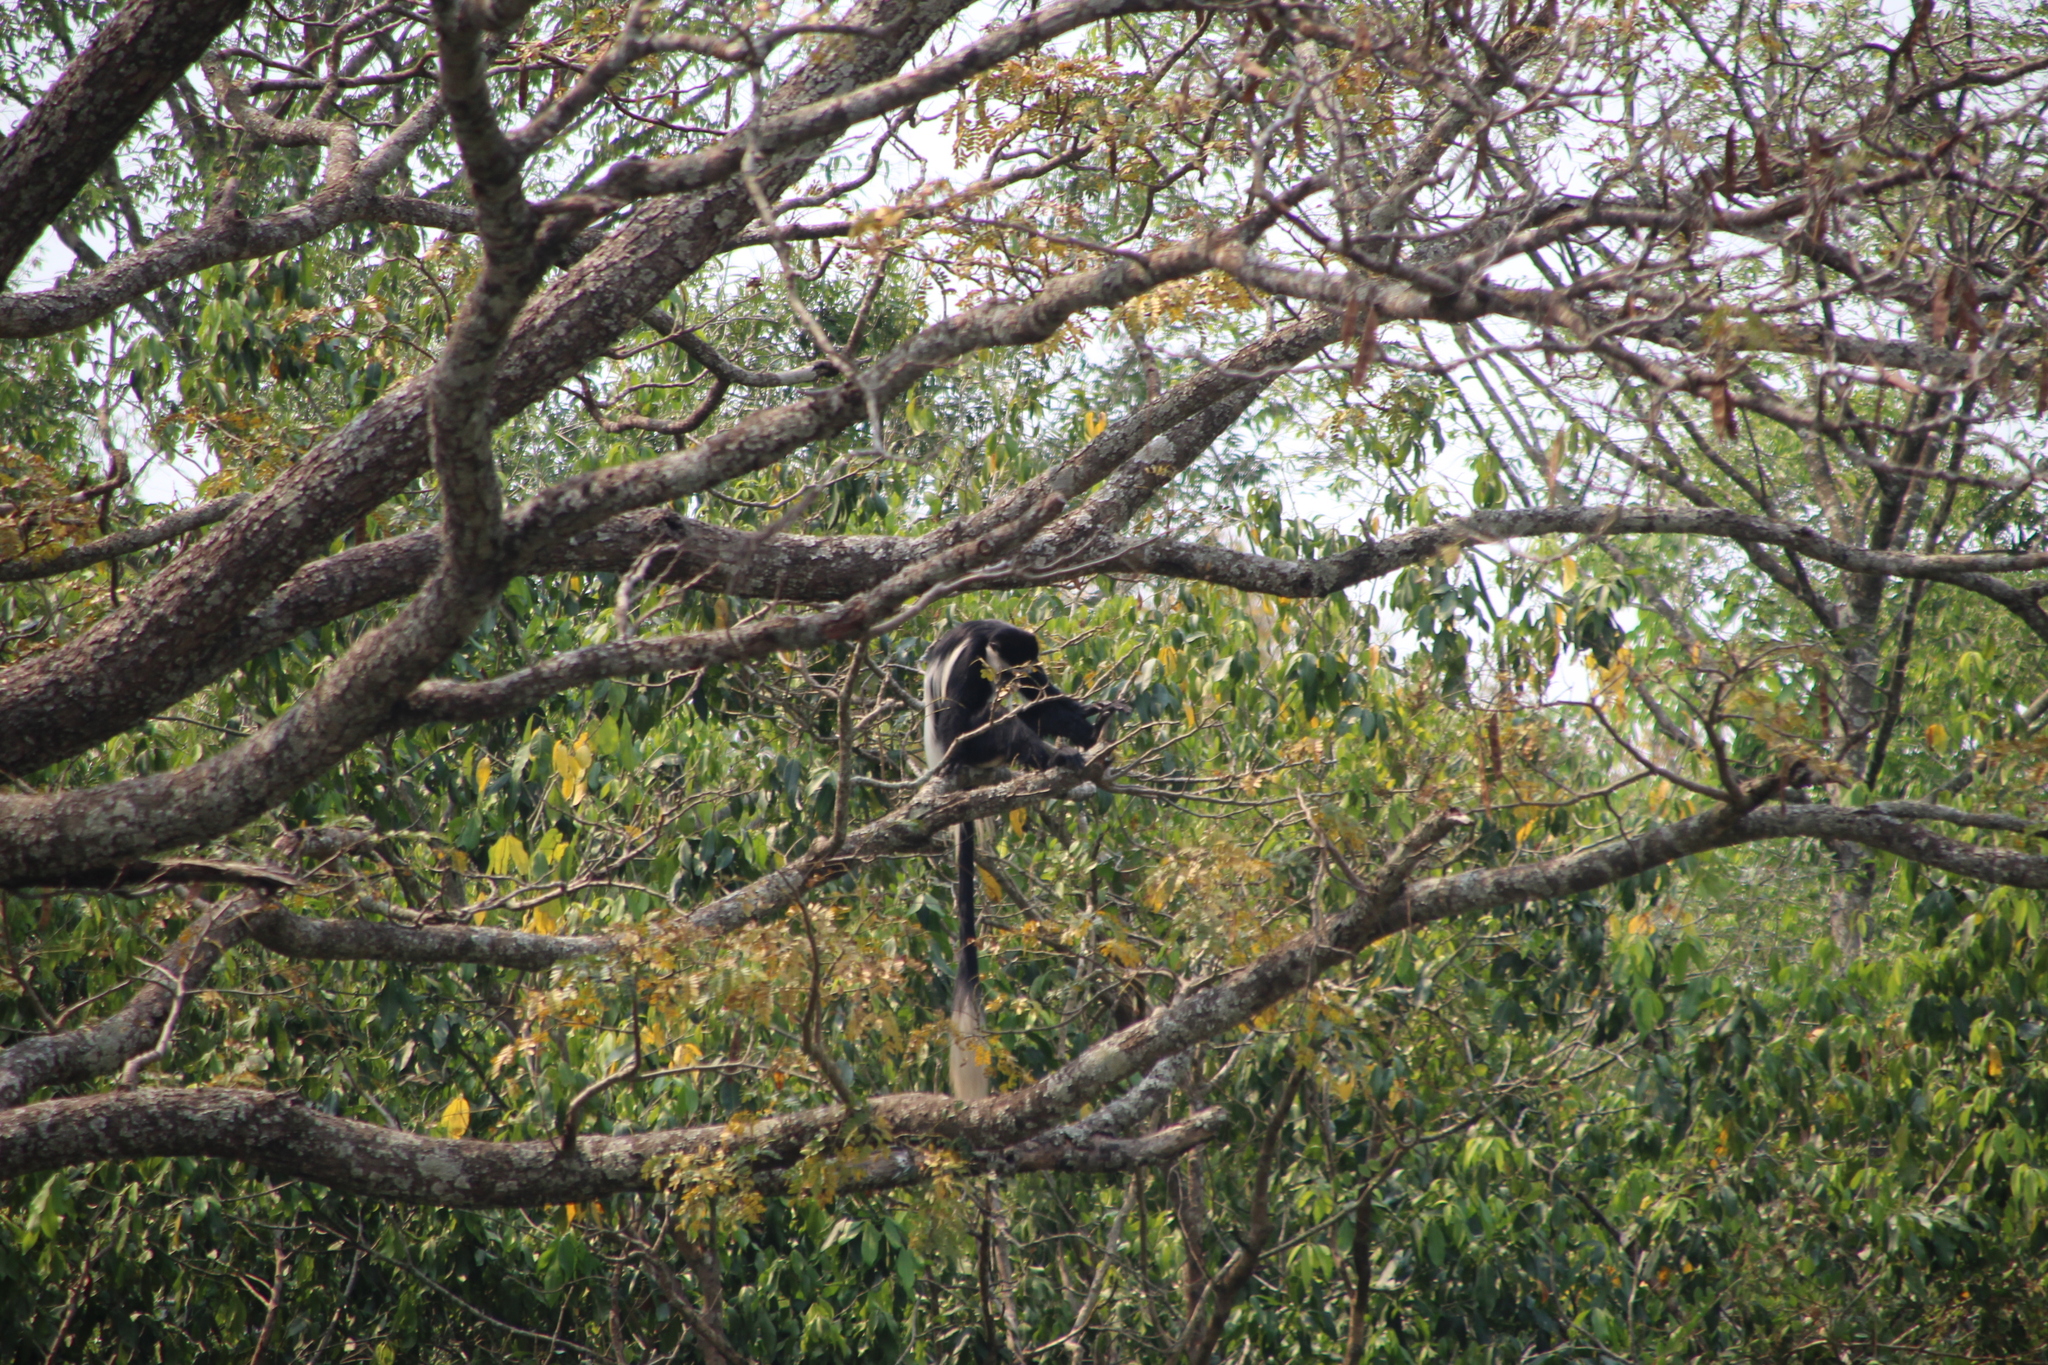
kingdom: Animalia
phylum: Chordata
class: Mammalia
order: Primates
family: Cercopithecidae
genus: Colobus
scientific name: Colobus guereza
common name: Mantled guereza
